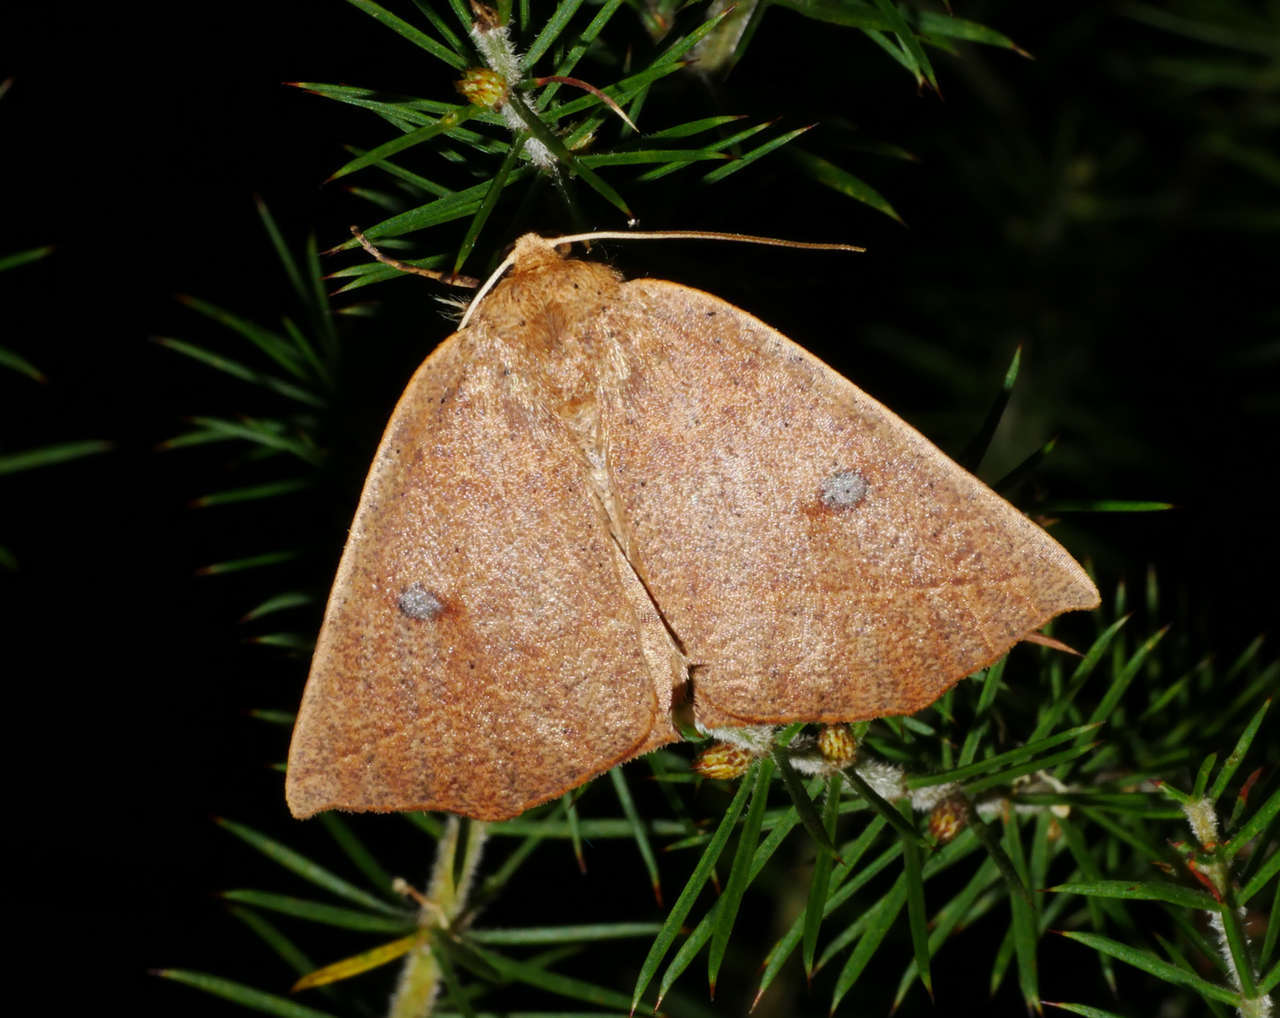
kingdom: Animalia
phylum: Arthropoda
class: Insecta
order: Lepidoptera
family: Geometridae
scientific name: Geometridae
